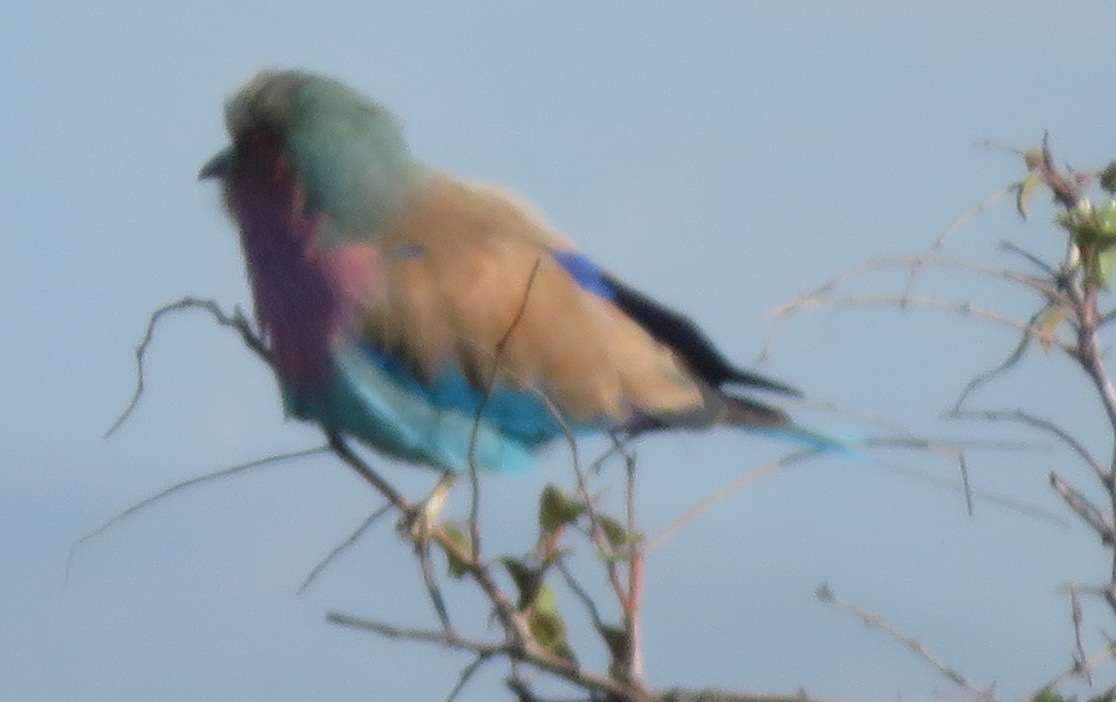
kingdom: Animalia
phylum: Chordata
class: Aves
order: Coraciiformes
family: Coraciidae
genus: Coracias
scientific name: Coracias caudatus
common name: Lilac-breasted roller
